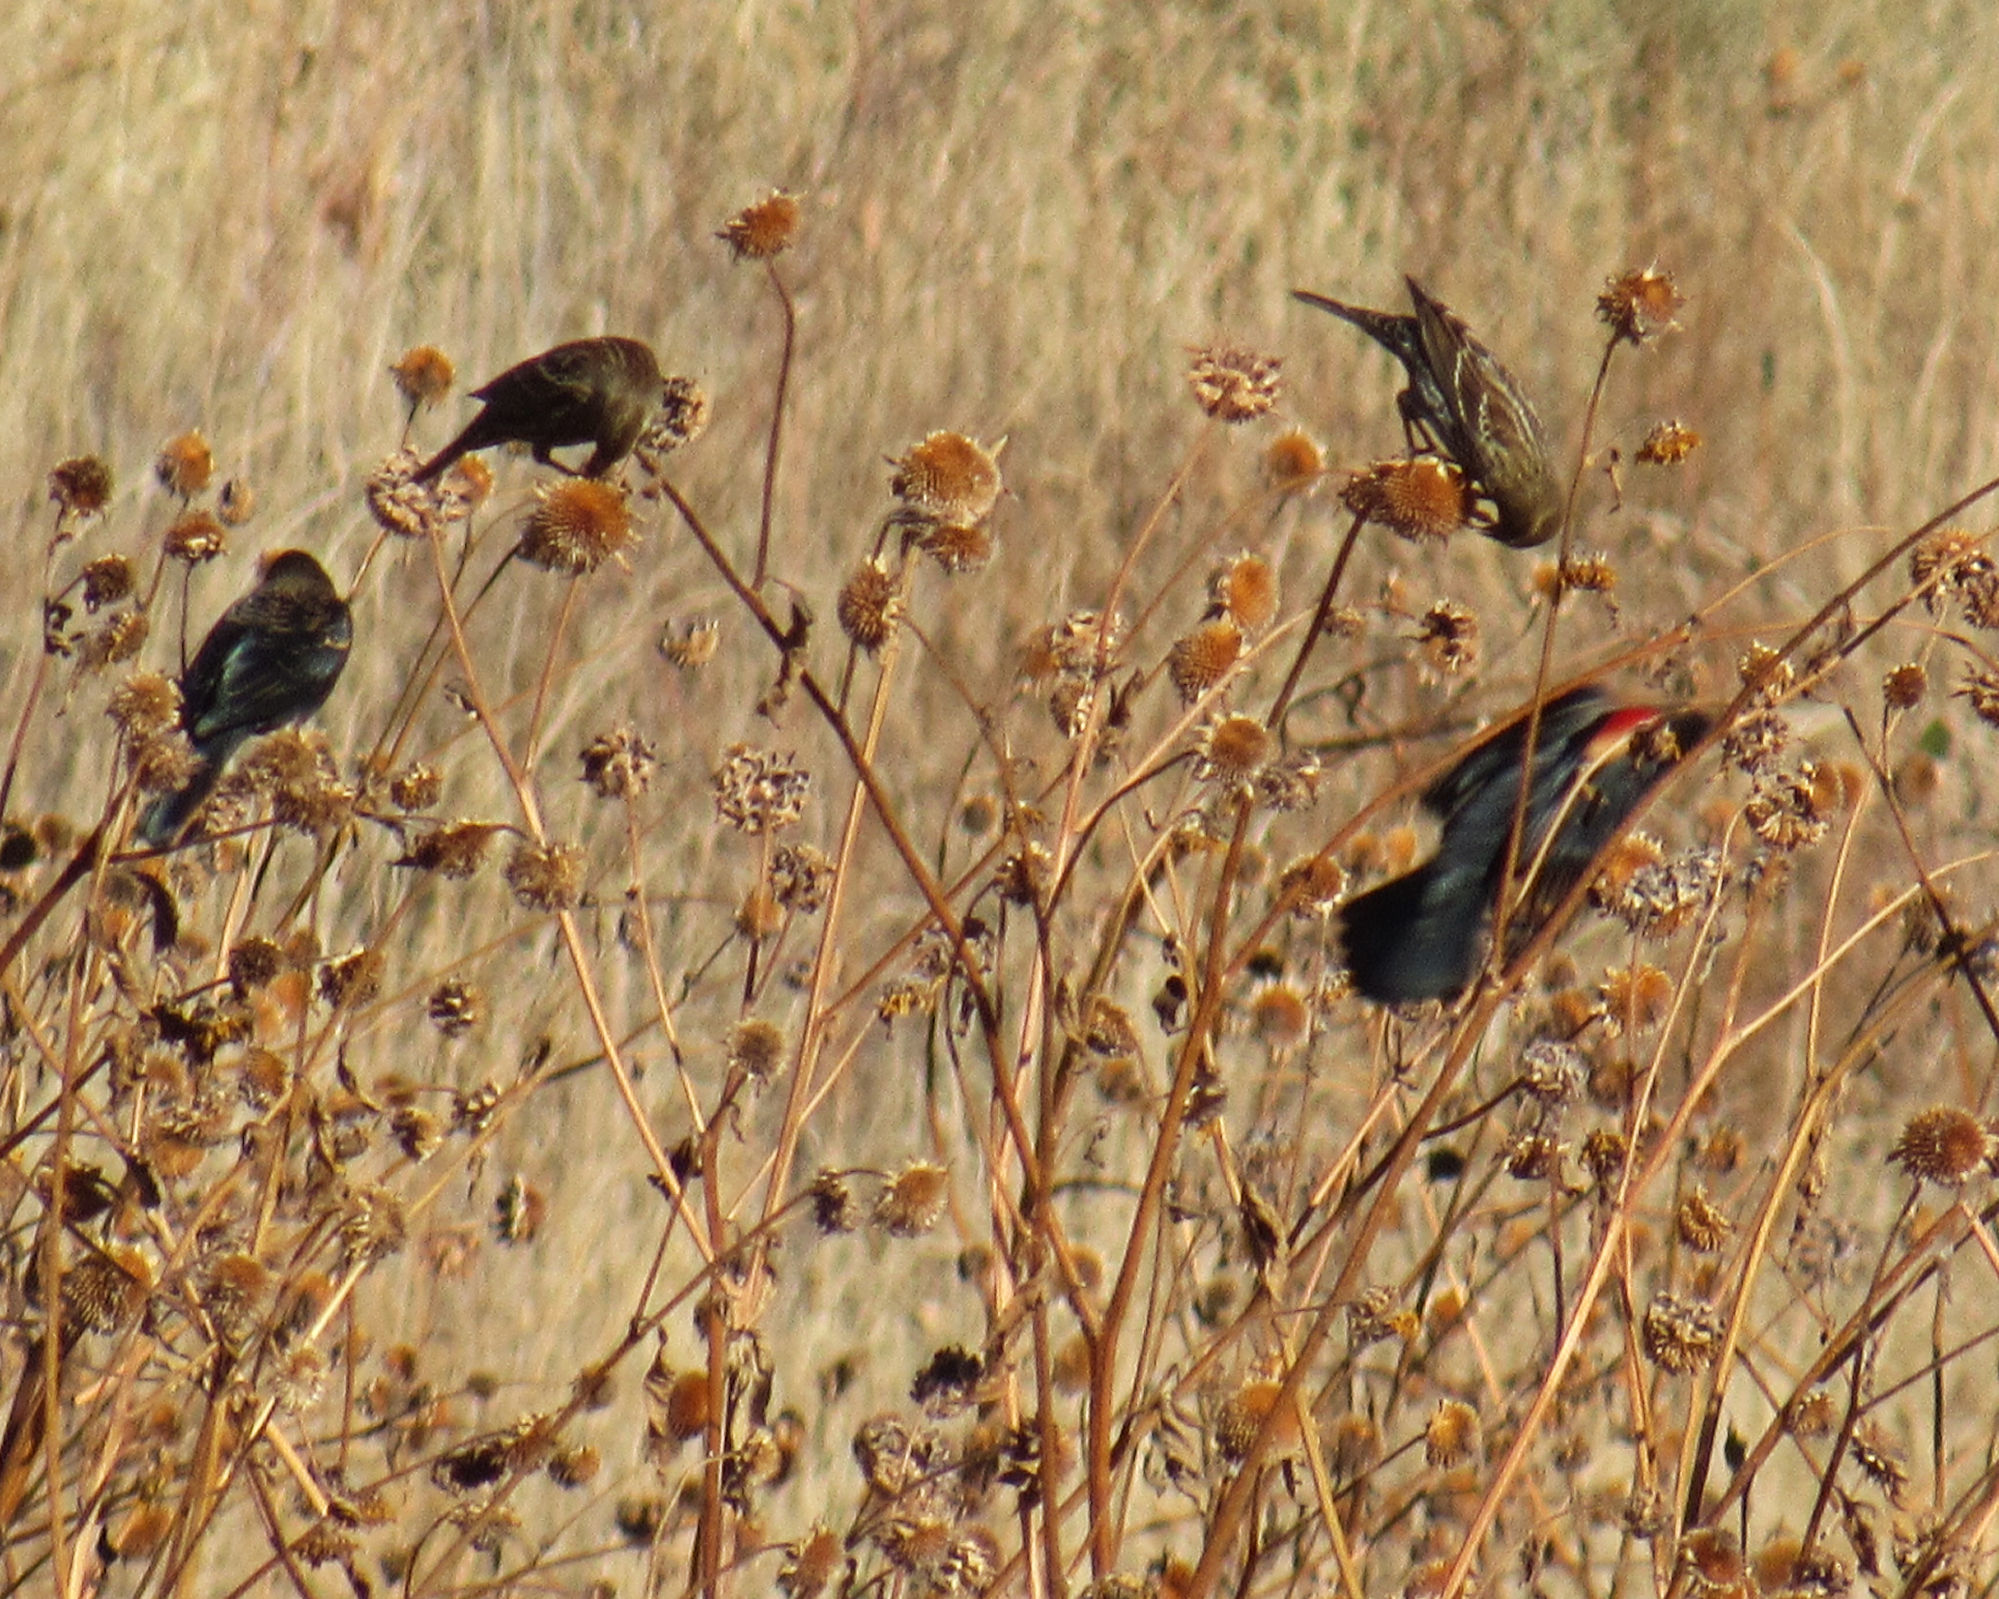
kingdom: Animalia
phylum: Chordata
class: Aves
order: Passeriformes
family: Icteridae
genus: Agelaius
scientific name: Agelaius phoeniceus
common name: Red-winged blackbird
